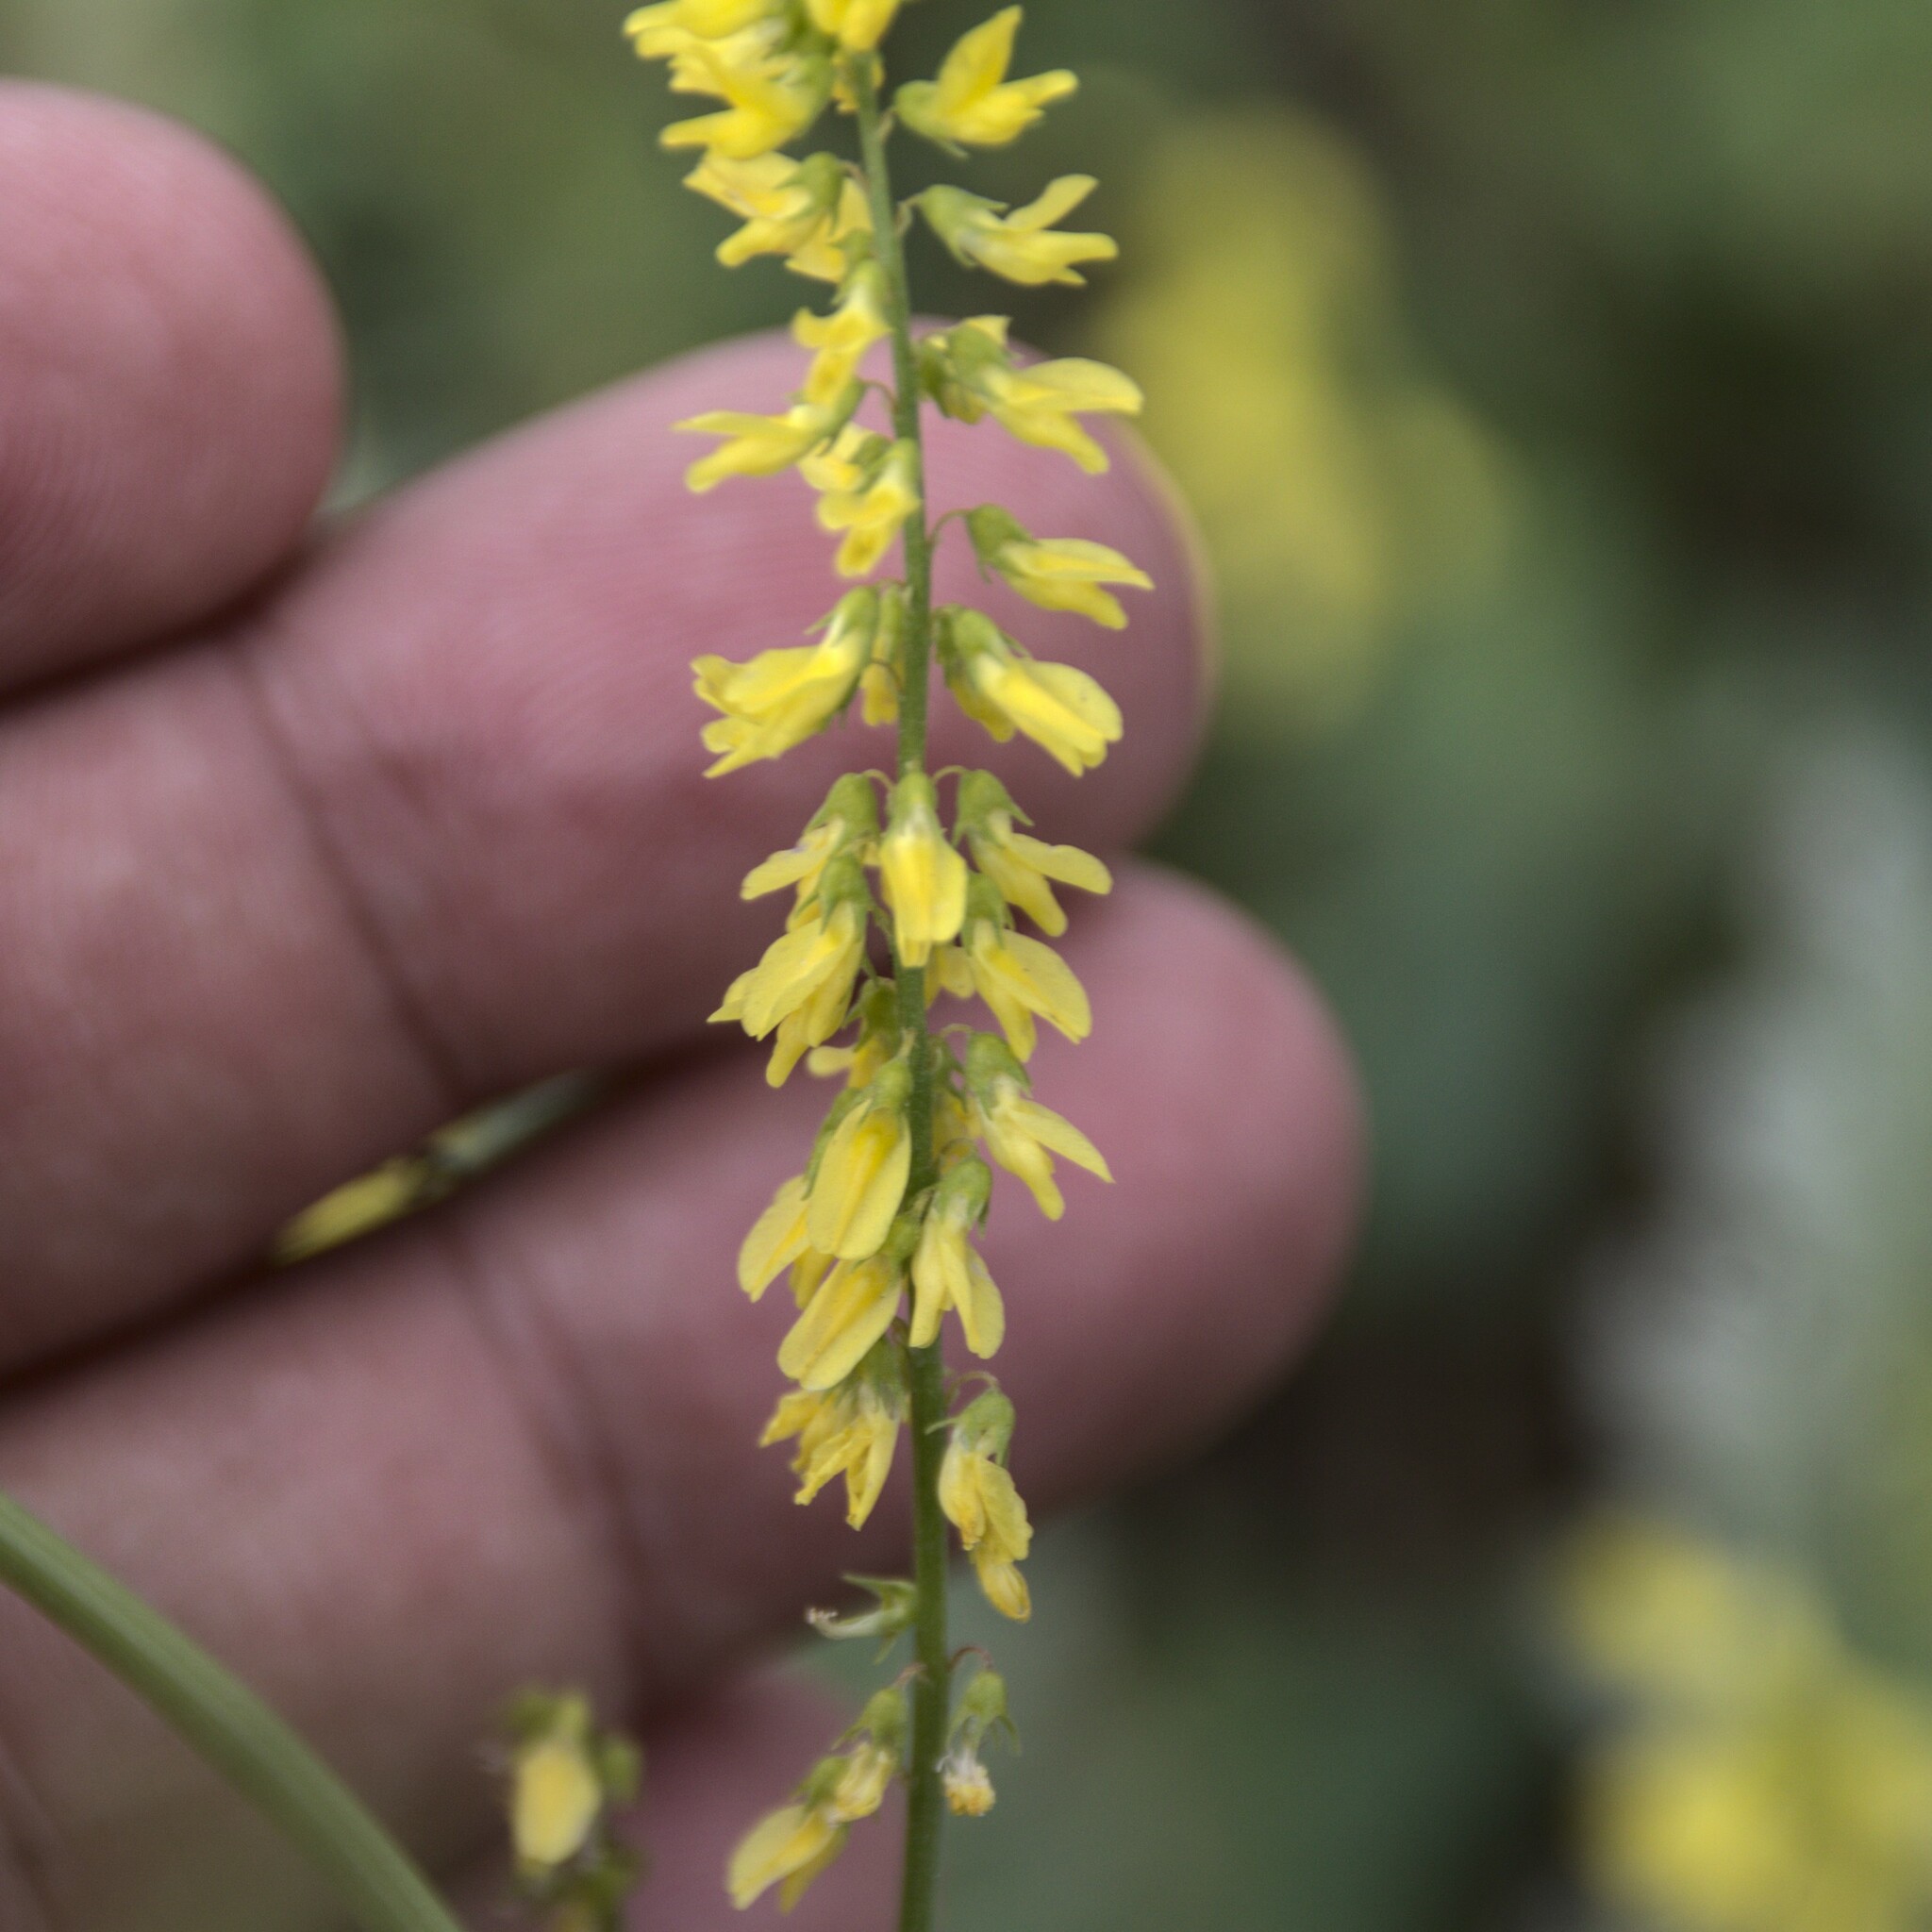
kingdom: Plantae
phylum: Tracheophyta
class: Magnoliopsida
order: Fabales
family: Fabaceae
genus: Melilotus
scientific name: Melilotus officinalis
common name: Sweetclover
